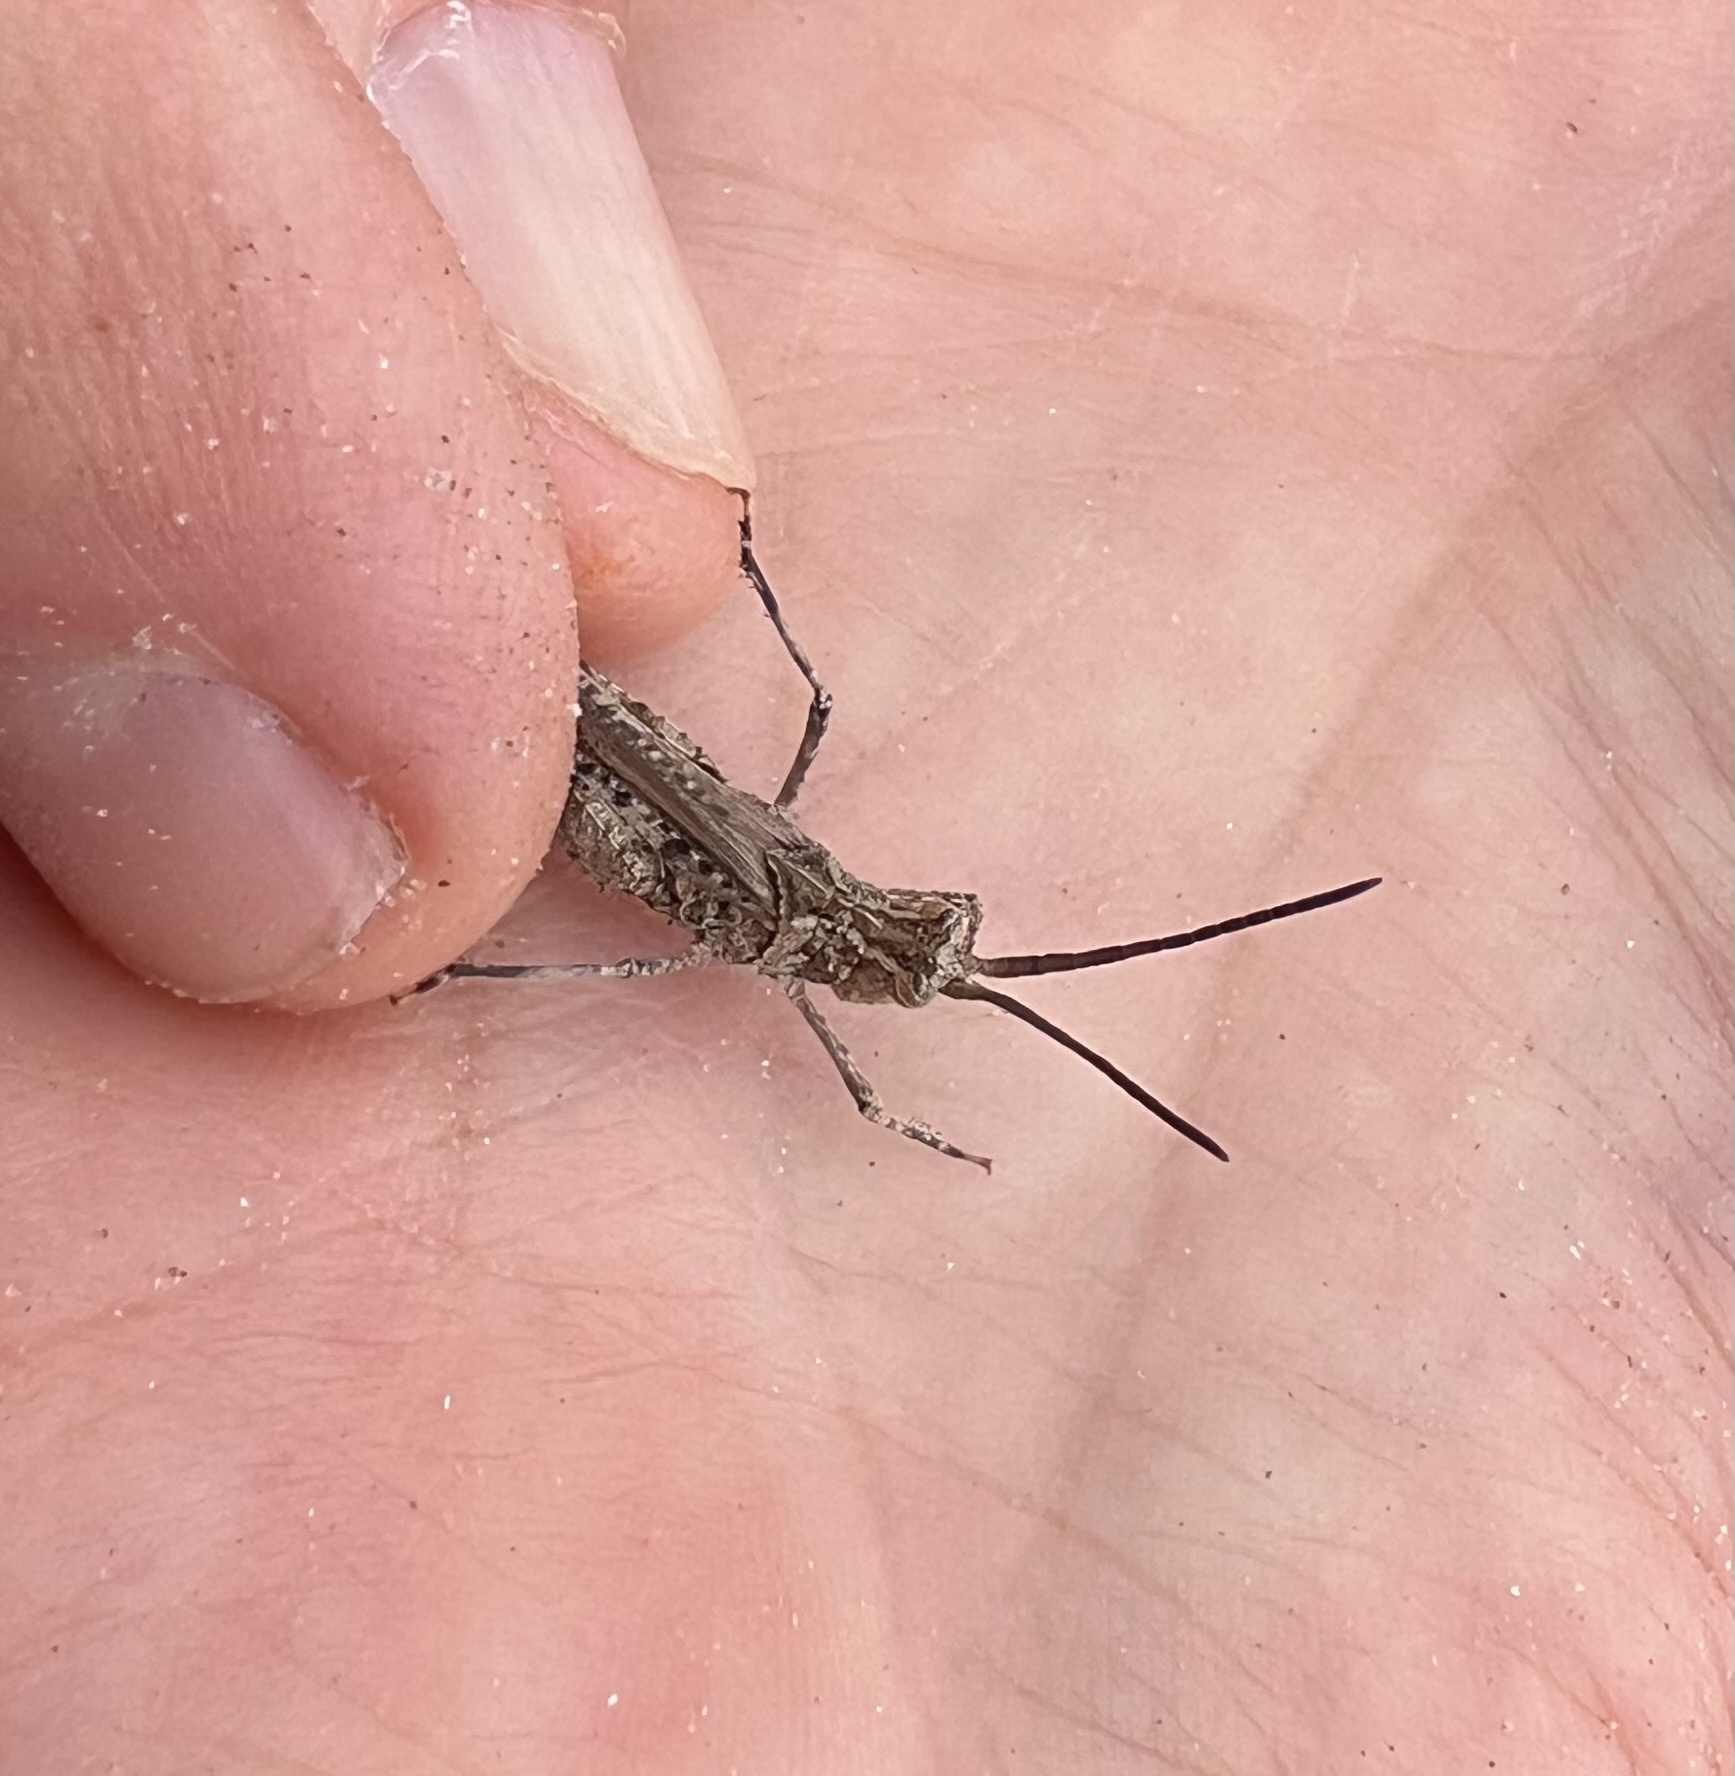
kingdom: Animalia
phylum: Arthropoda
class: Insecta
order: Orthoptera
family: Acrididae
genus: Psinidia
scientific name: Psinidia amplicornus
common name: Caudell's longhorn grasshopper
